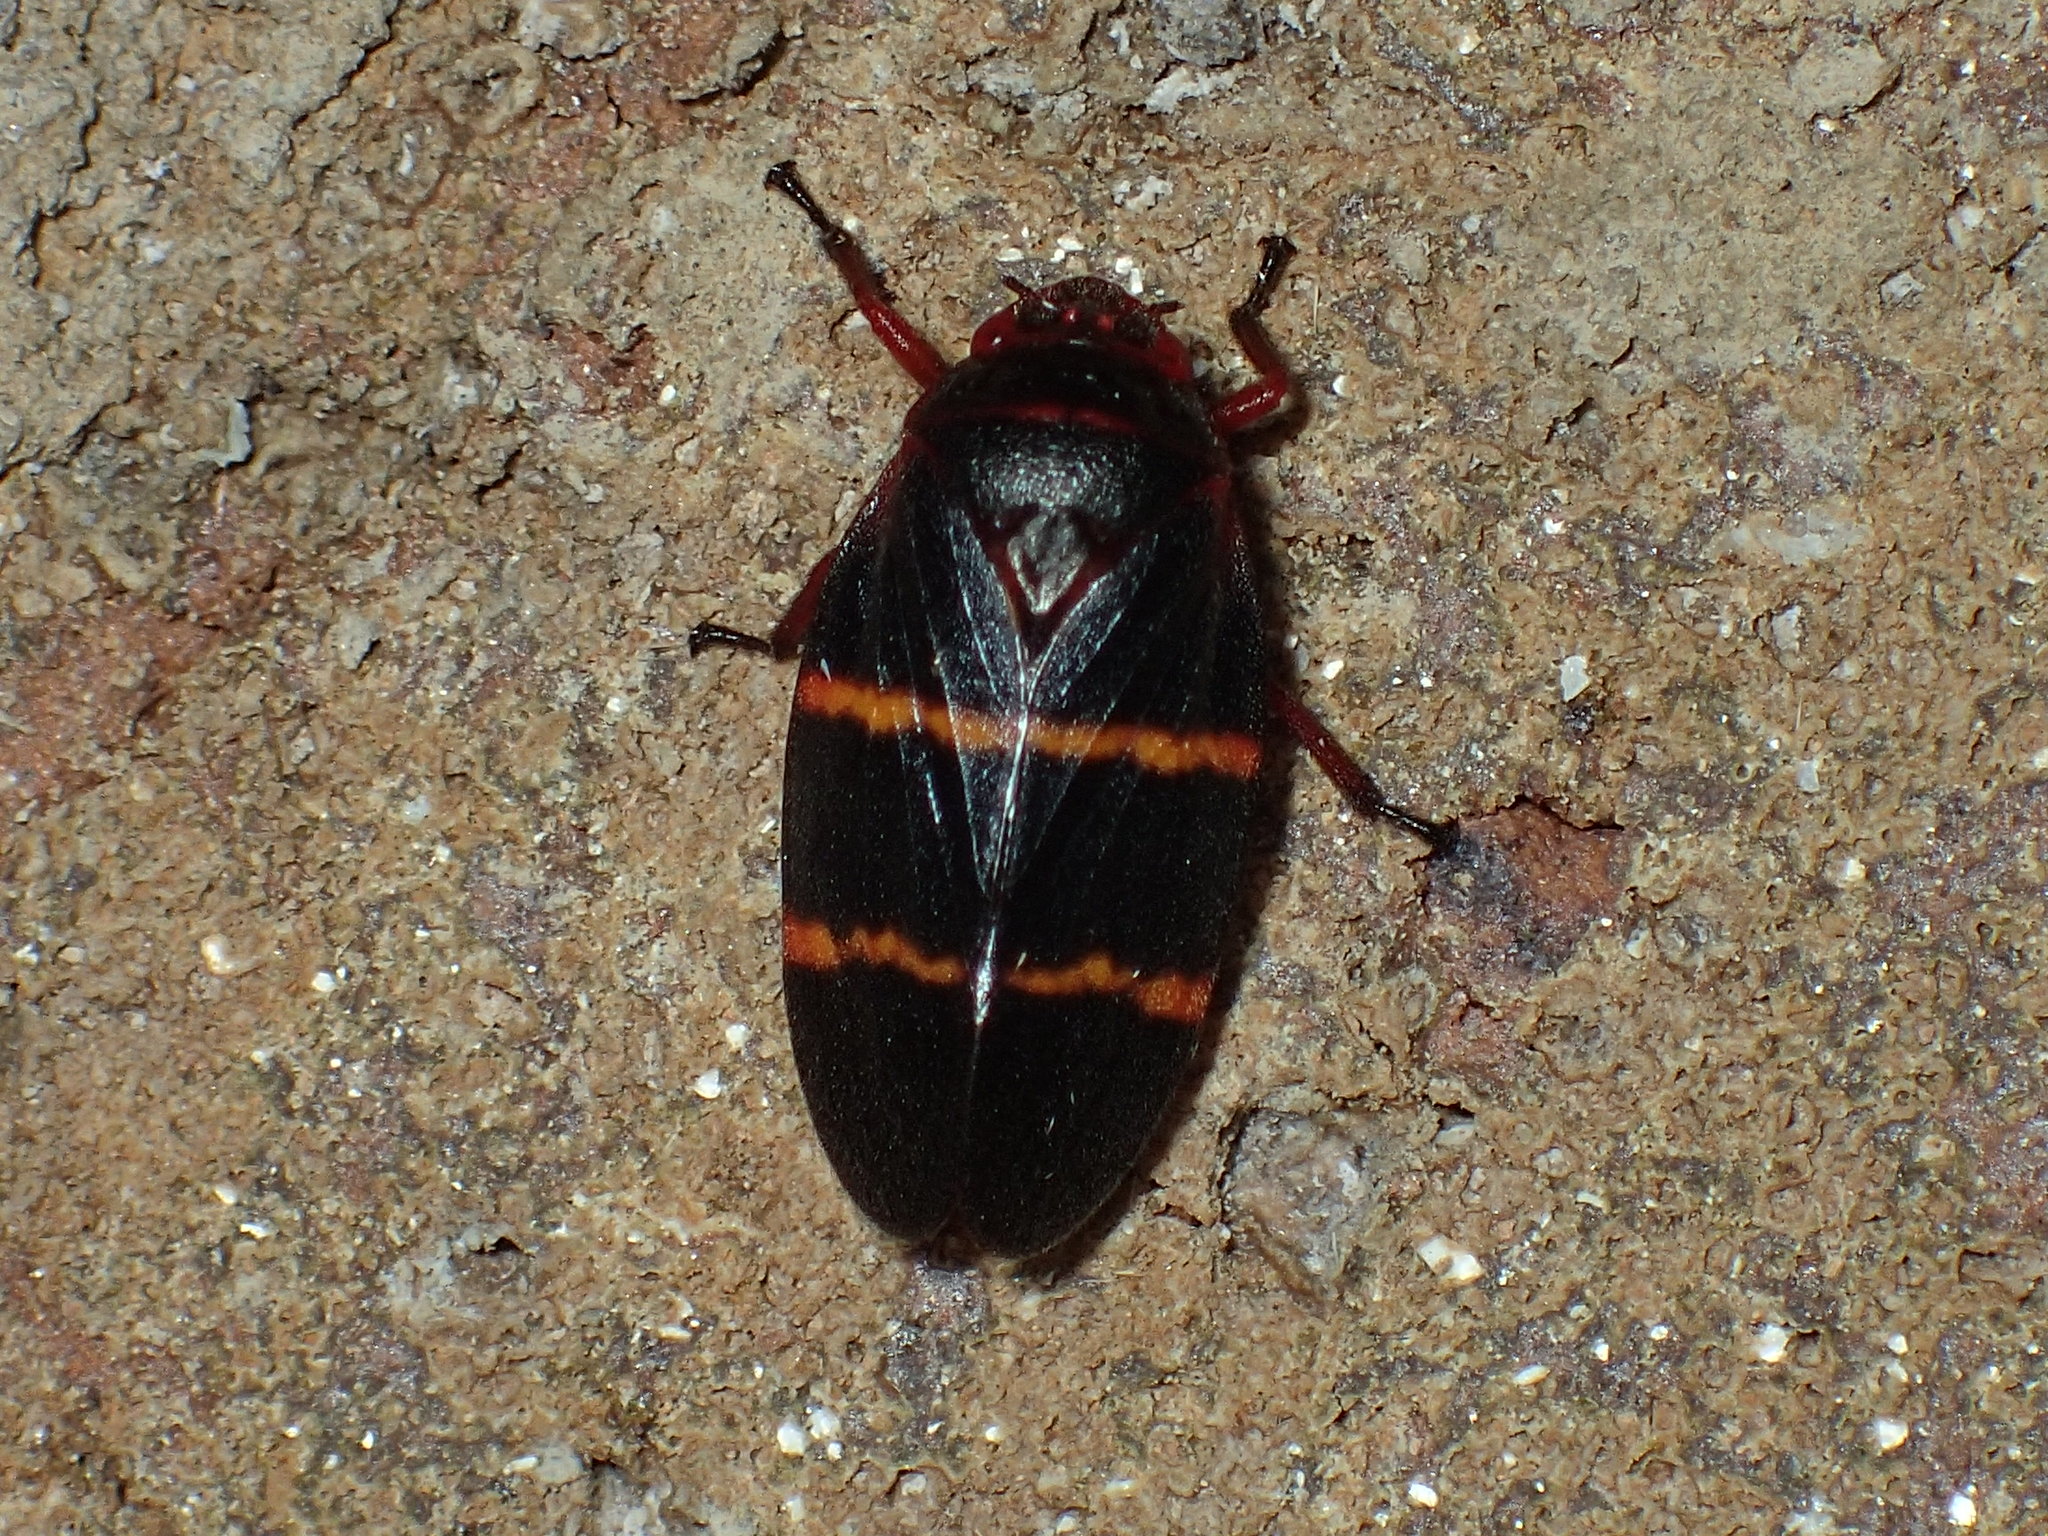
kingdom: Animalia
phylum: Arthropoda
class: Insecta
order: Hemiptera
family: Cercopidae
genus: Prosapia
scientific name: Prosapia bicincta
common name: Twolined spittlebug
